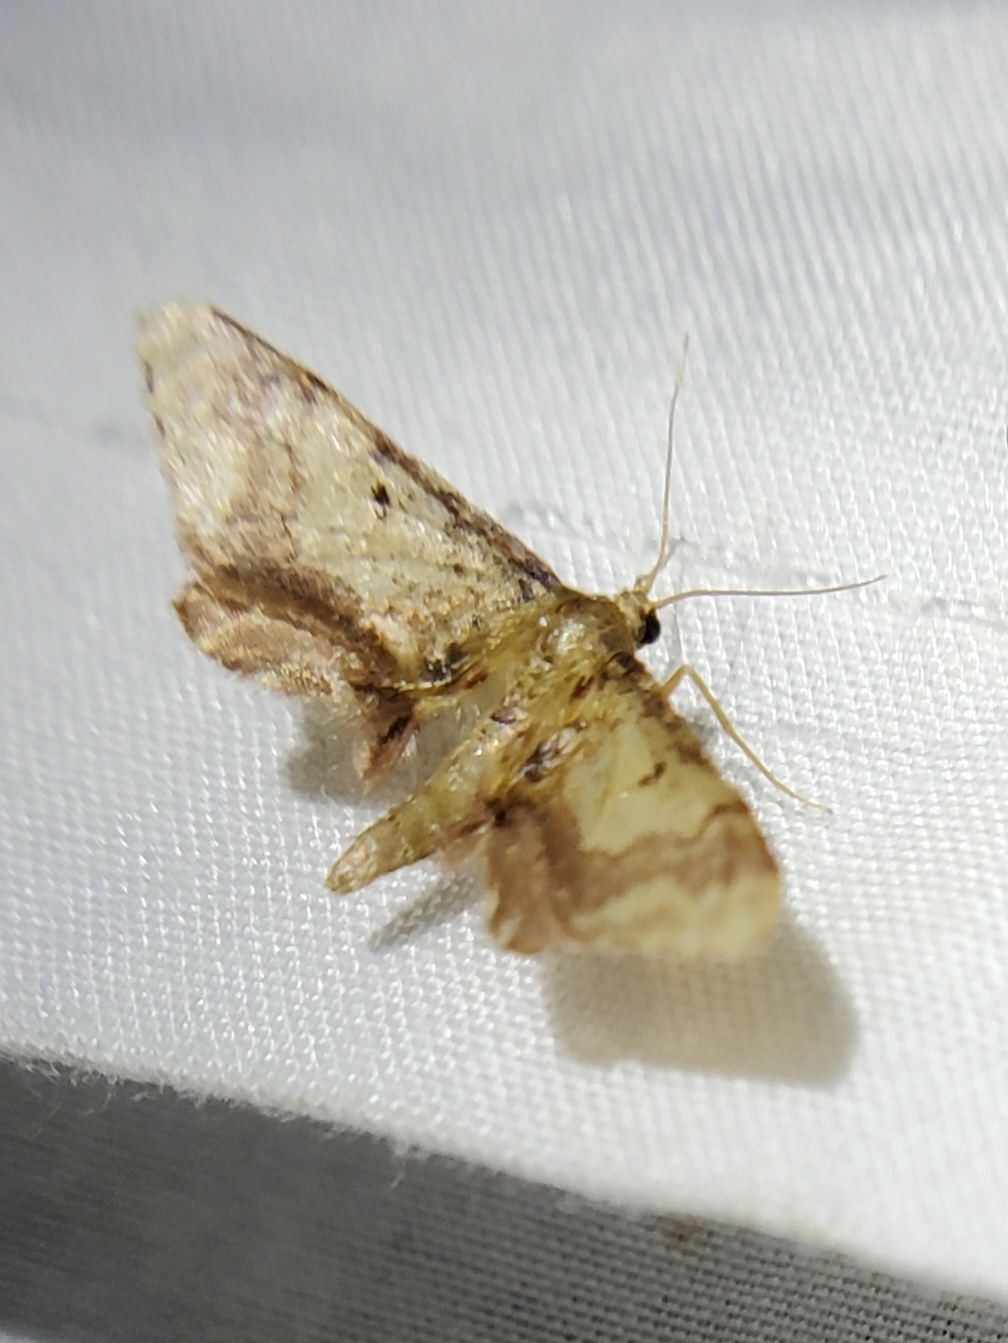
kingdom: Animalia
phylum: Arthropoda
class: Insecta
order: Lepidoptera
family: Geometridae
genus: Idaea
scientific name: Idaea furciferata
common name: Notch-winged wave
